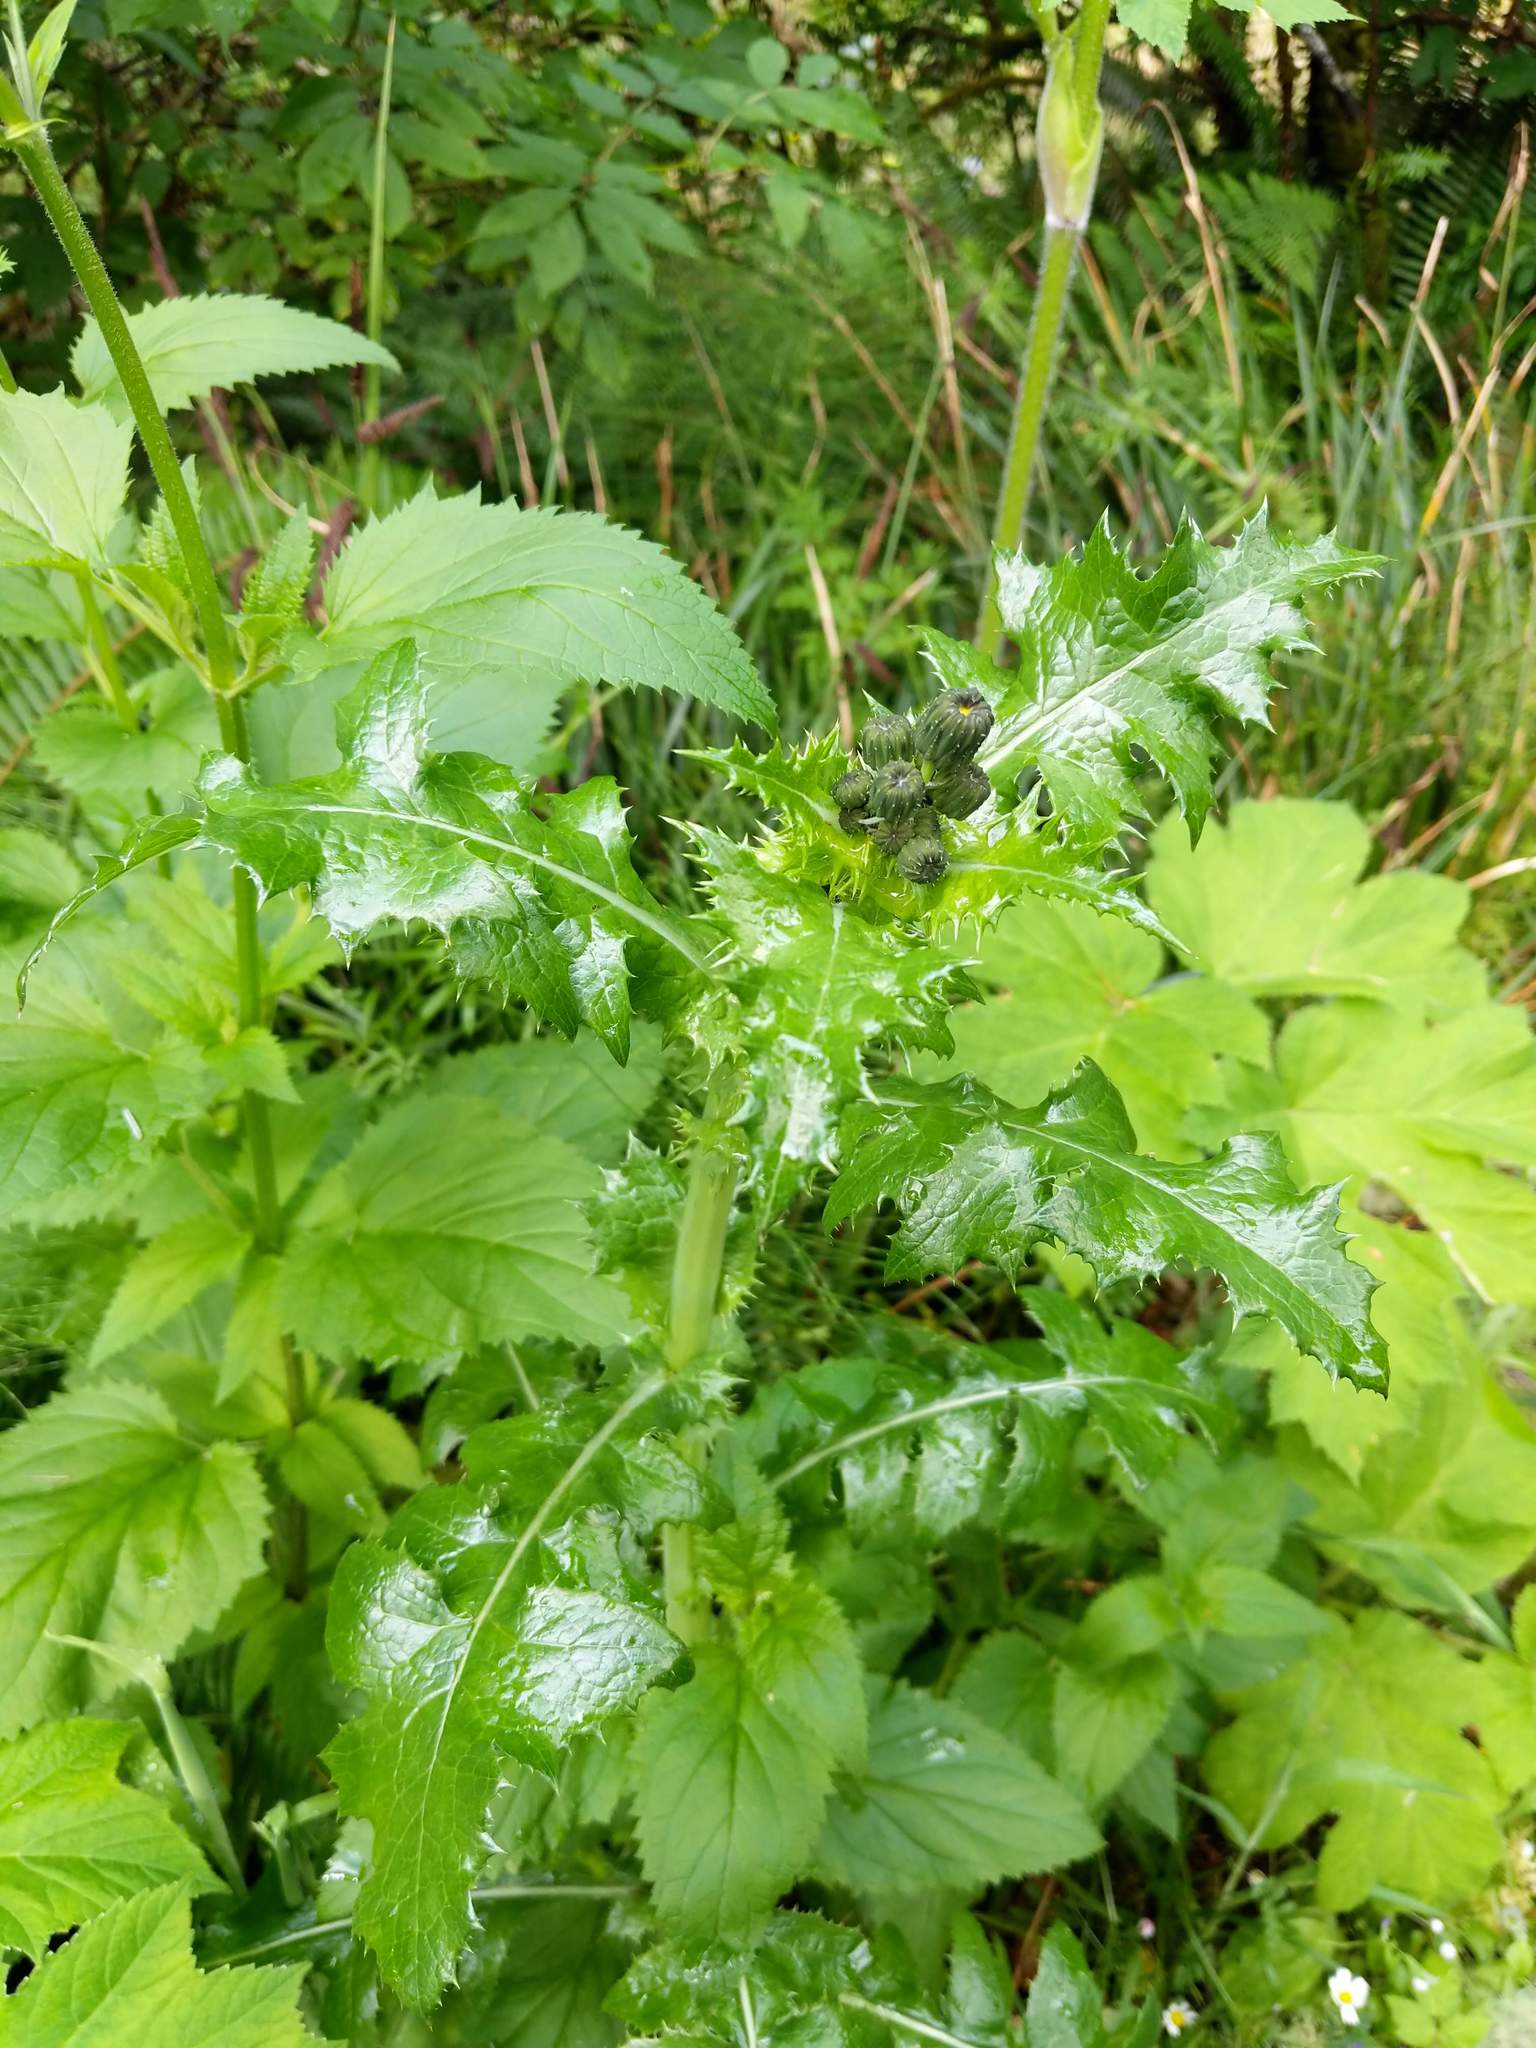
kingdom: Plantae
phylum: Tracheophyta
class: Magnoliopsida
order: Asterales
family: Asteraceae
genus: Sonchus
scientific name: Sonchus asper
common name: Prickly sow-thistle
